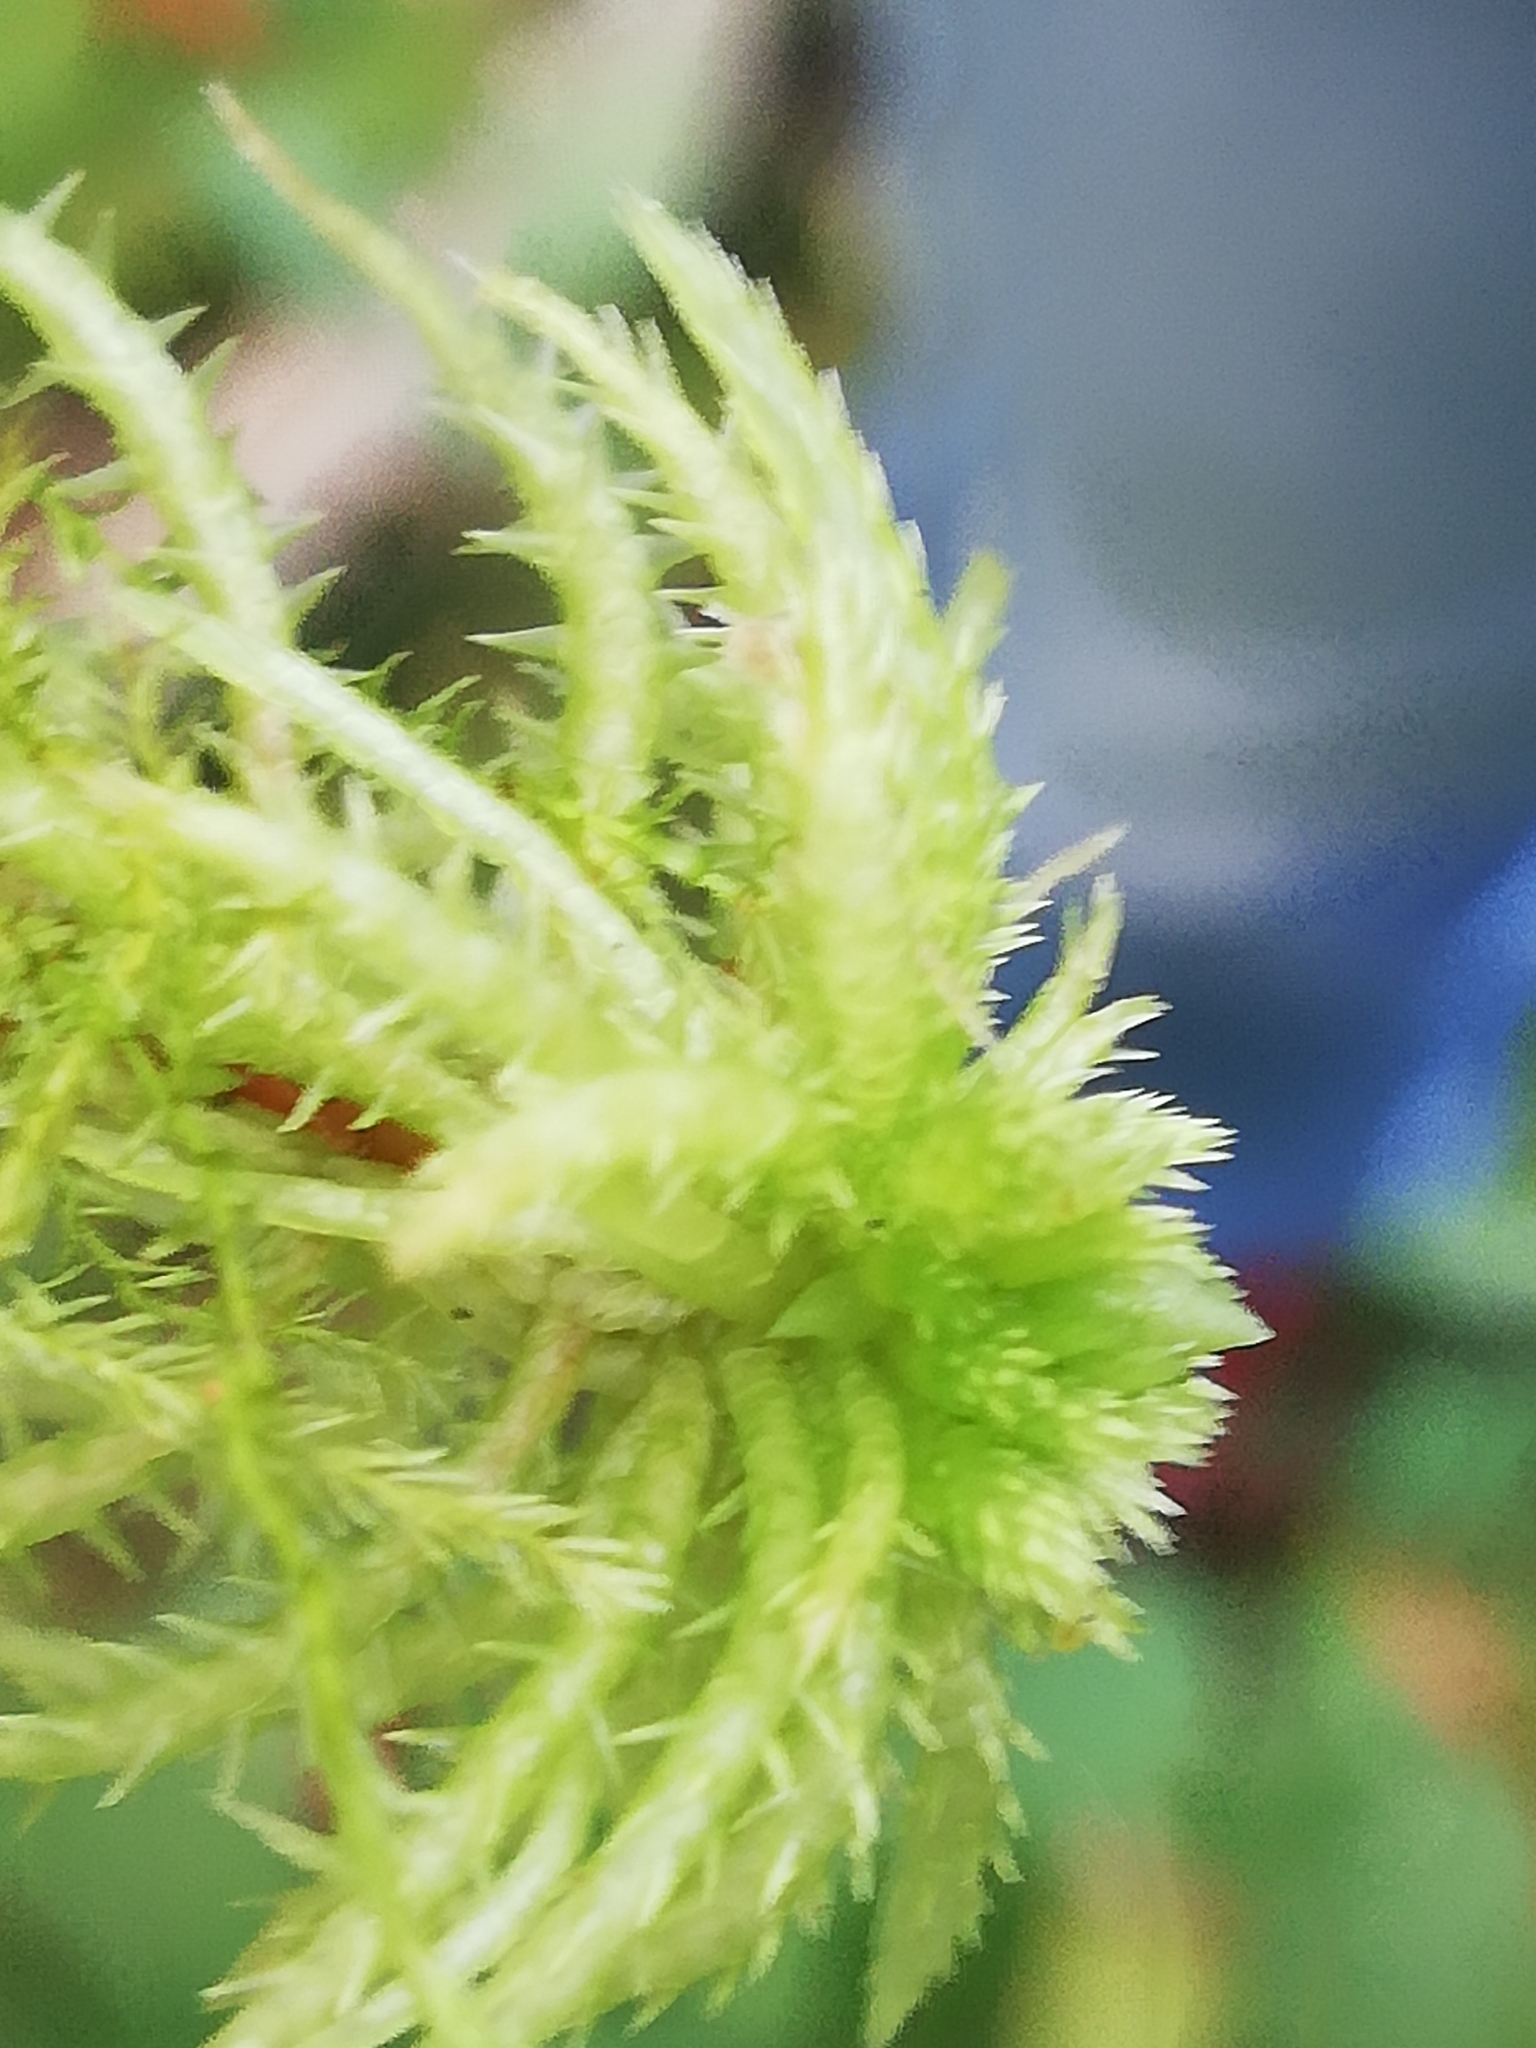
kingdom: Plantae
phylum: Bryophyta
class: Sphagnopsida
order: Sphagnales
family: Sphagnaceae
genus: Sphagnum
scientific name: Sphagnum squarrosum
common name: Shaggy peat moss
